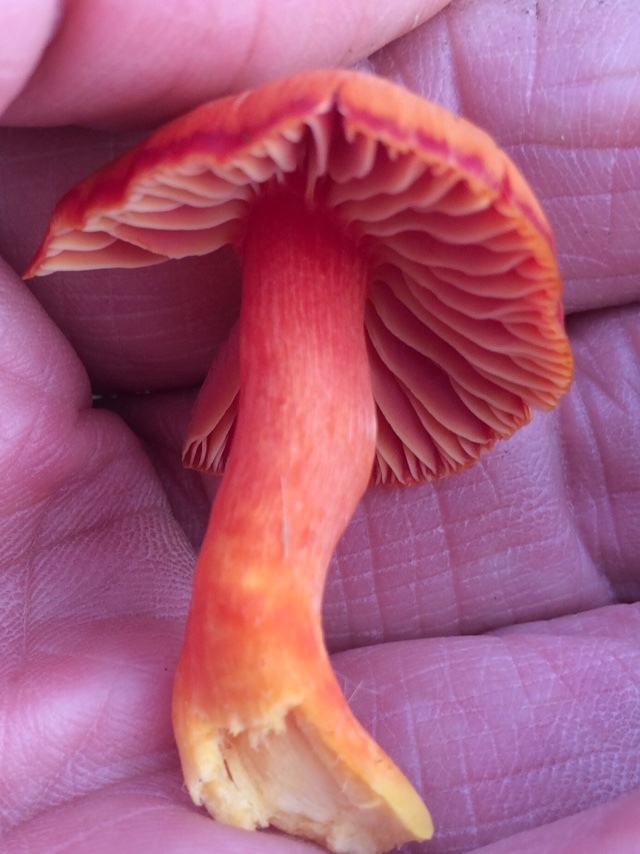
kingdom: Fungi
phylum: Basidiomycota
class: Agaricomycetes
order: Agaricales
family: Hygrophoraceae
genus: Hygrocybe
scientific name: Hygrocybe punicea
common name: Crimson waxcap
